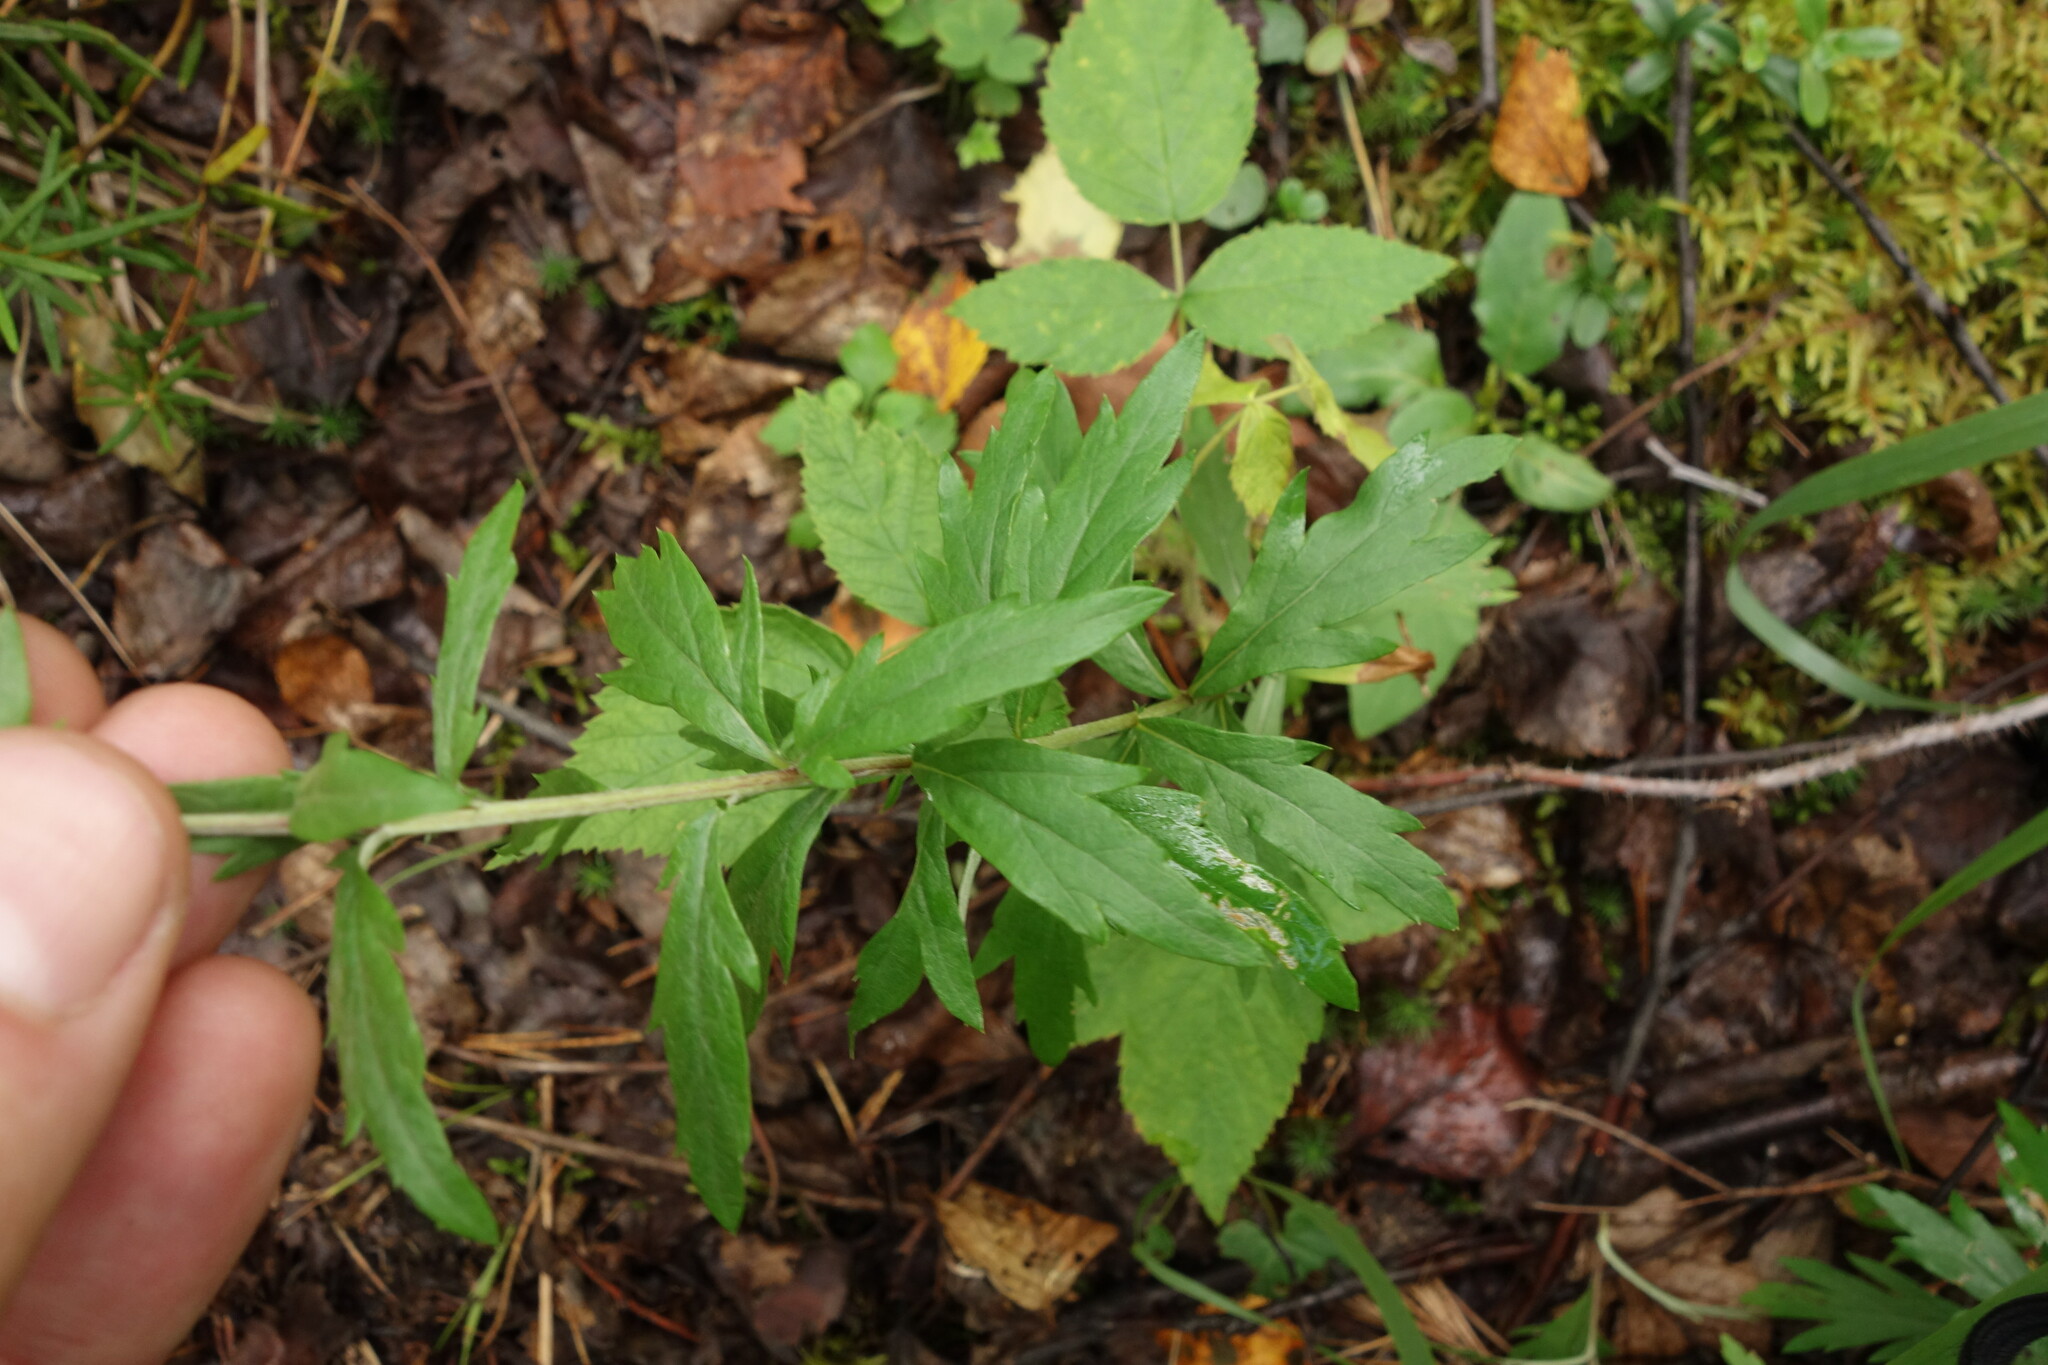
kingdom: Plantae
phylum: Tracheophyta
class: Magnoliopsida
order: Asterales
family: Asteraceae
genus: Artemisia
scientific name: Artemisia integrifolia
